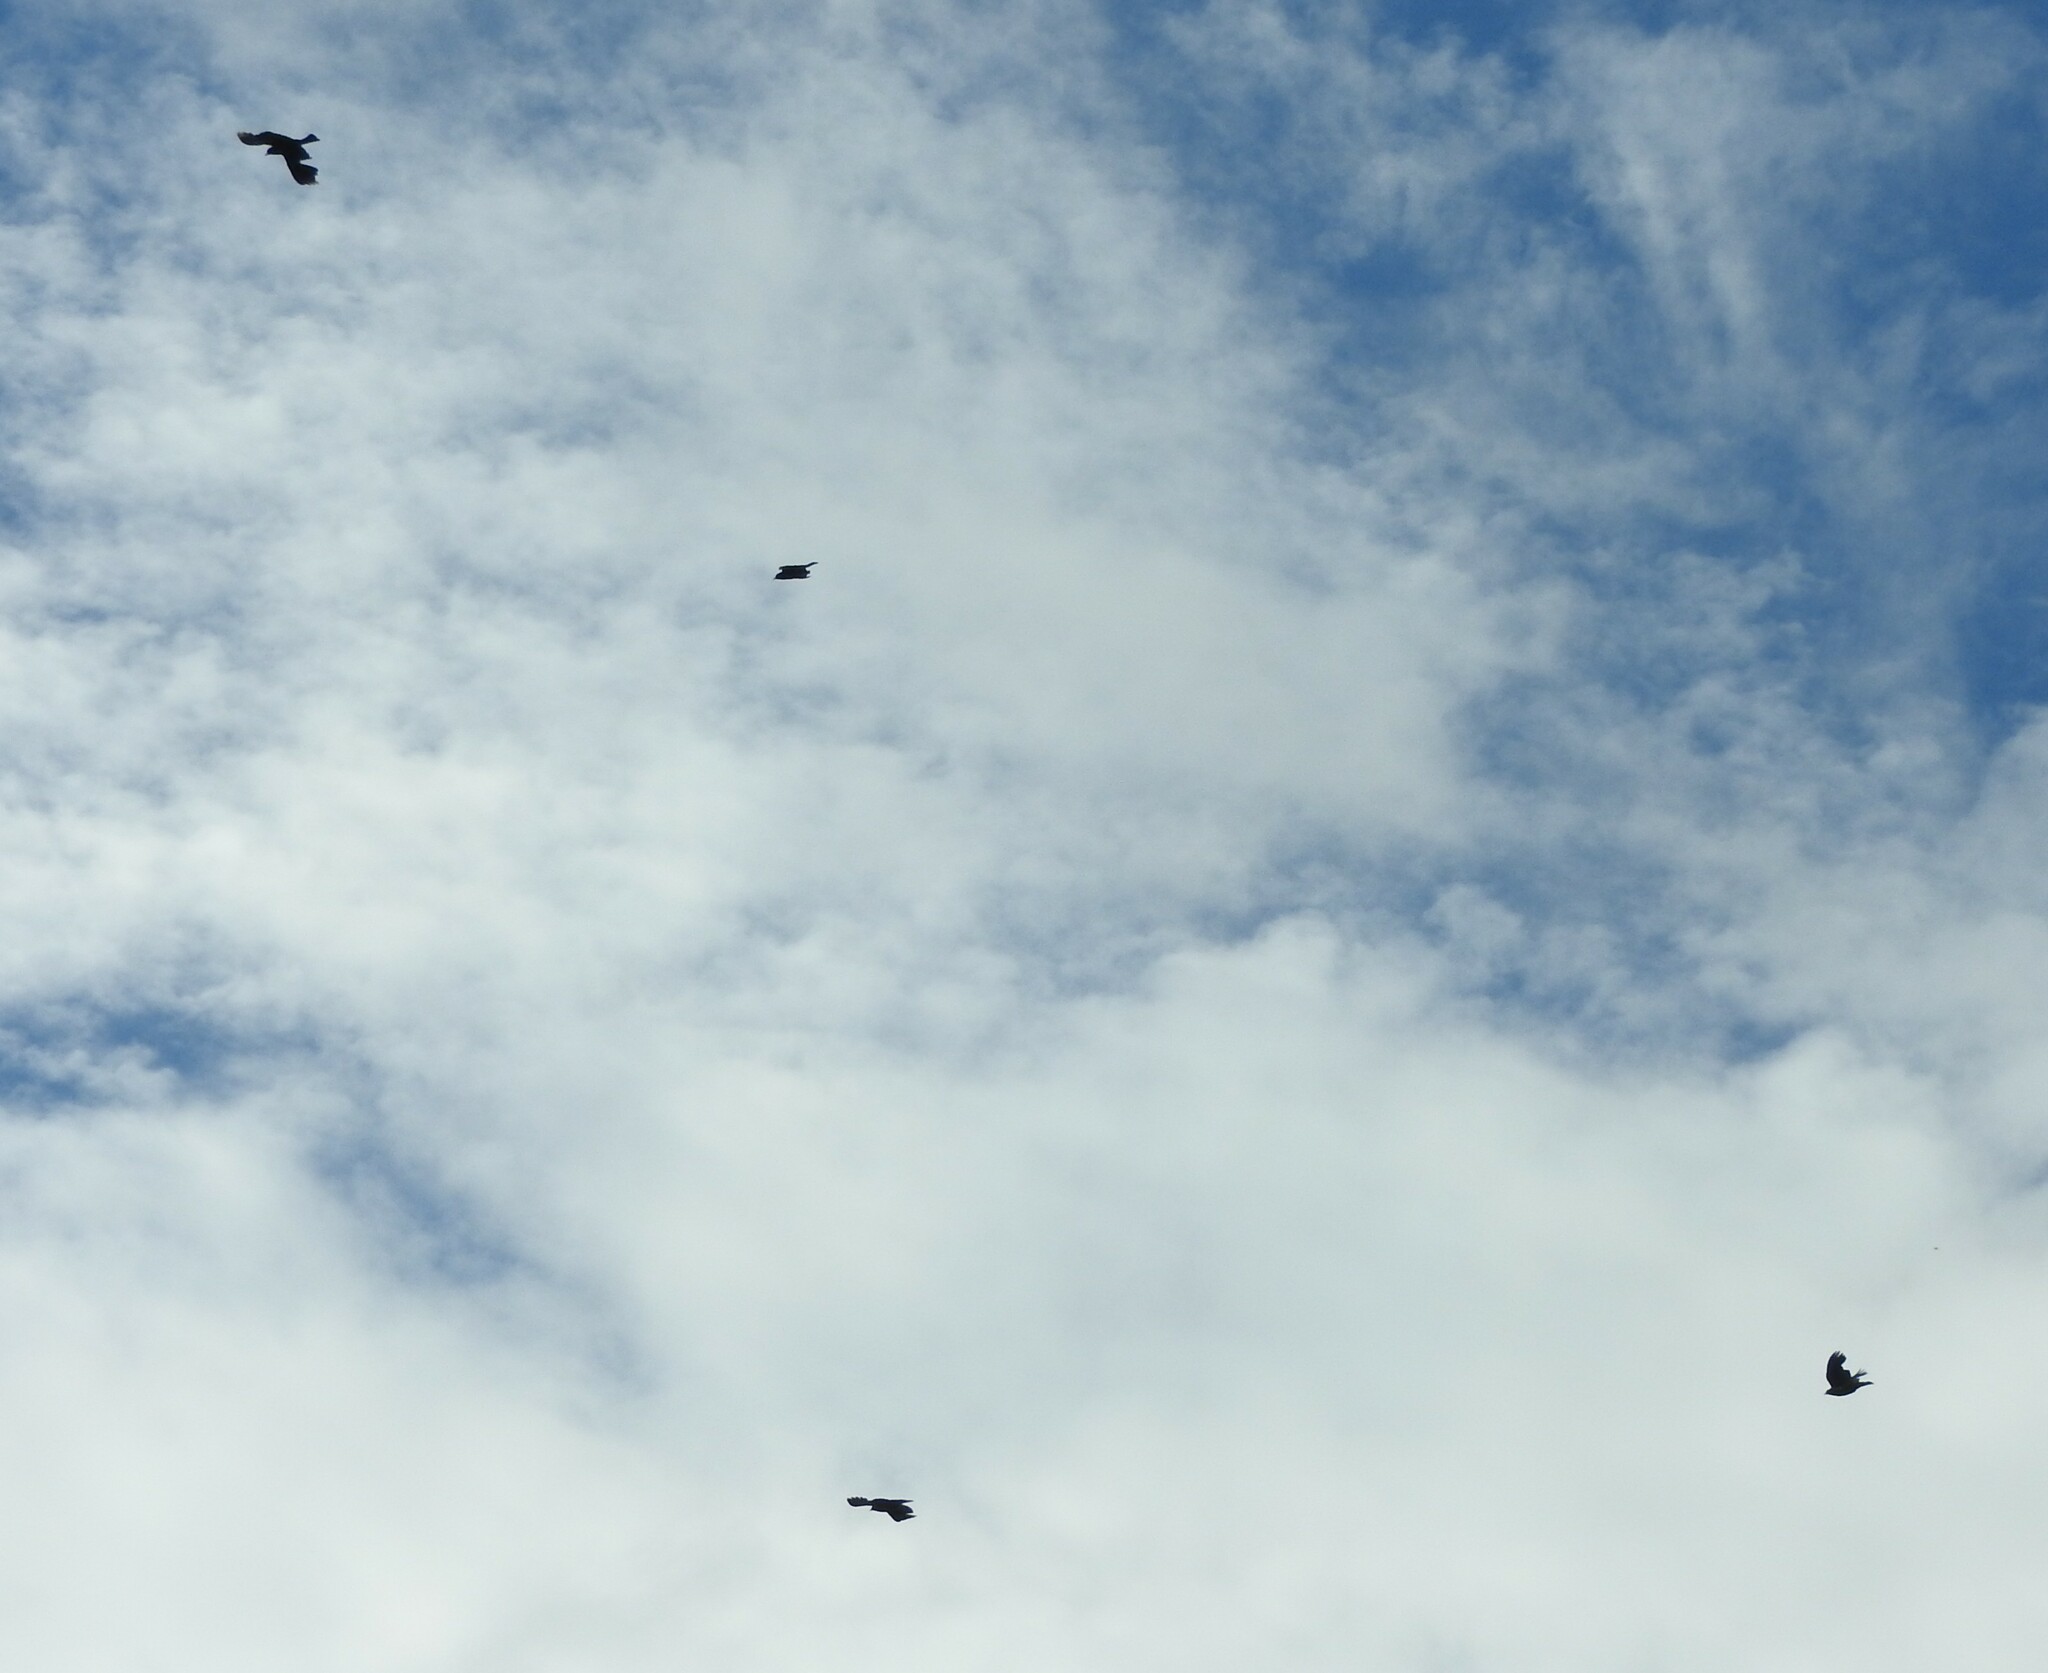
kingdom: Animalia
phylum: Chordata
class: Aves
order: Passeriformes
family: Icteridae
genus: Agelaius
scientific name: Agelaius phoeniceus
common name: Red-winged blackbird
